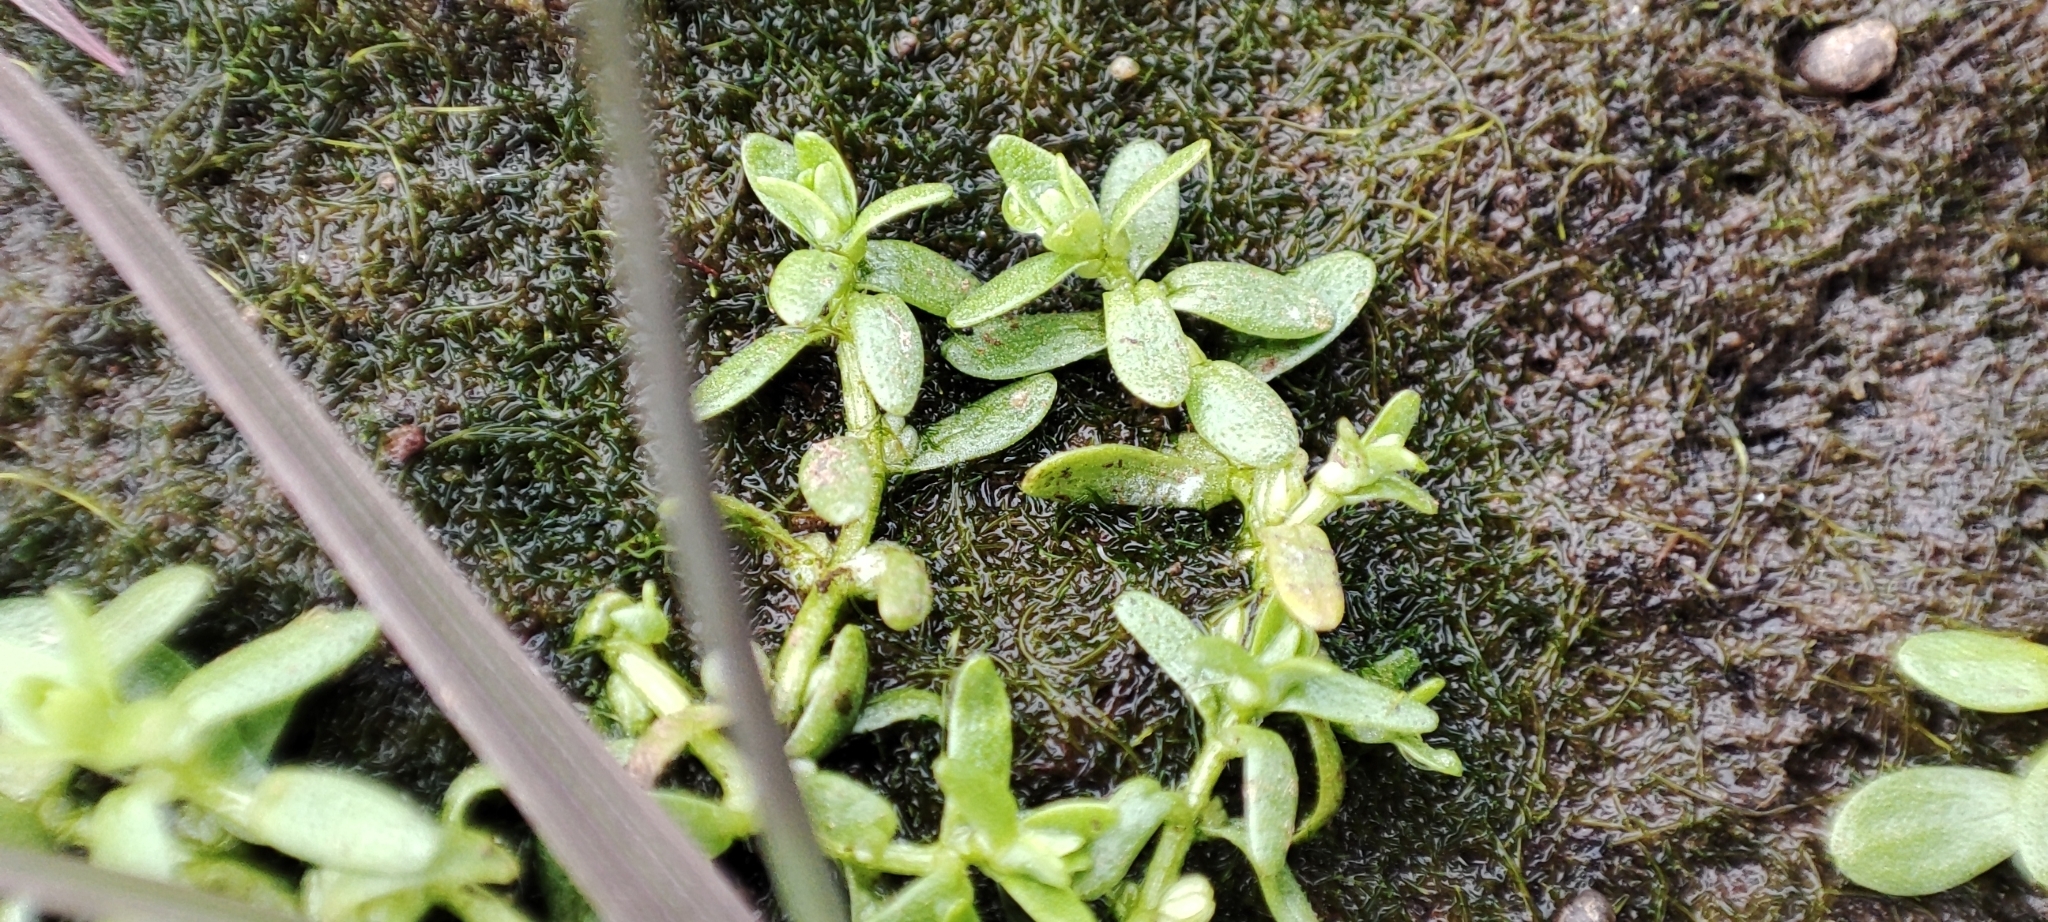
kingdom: Plantae
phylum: Tracheophyta
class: Magnoliopsida
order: Lamiales
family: Plantaginaceae
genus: Callitriche
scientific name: Callitriche palustris
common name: Spring water-starwort
